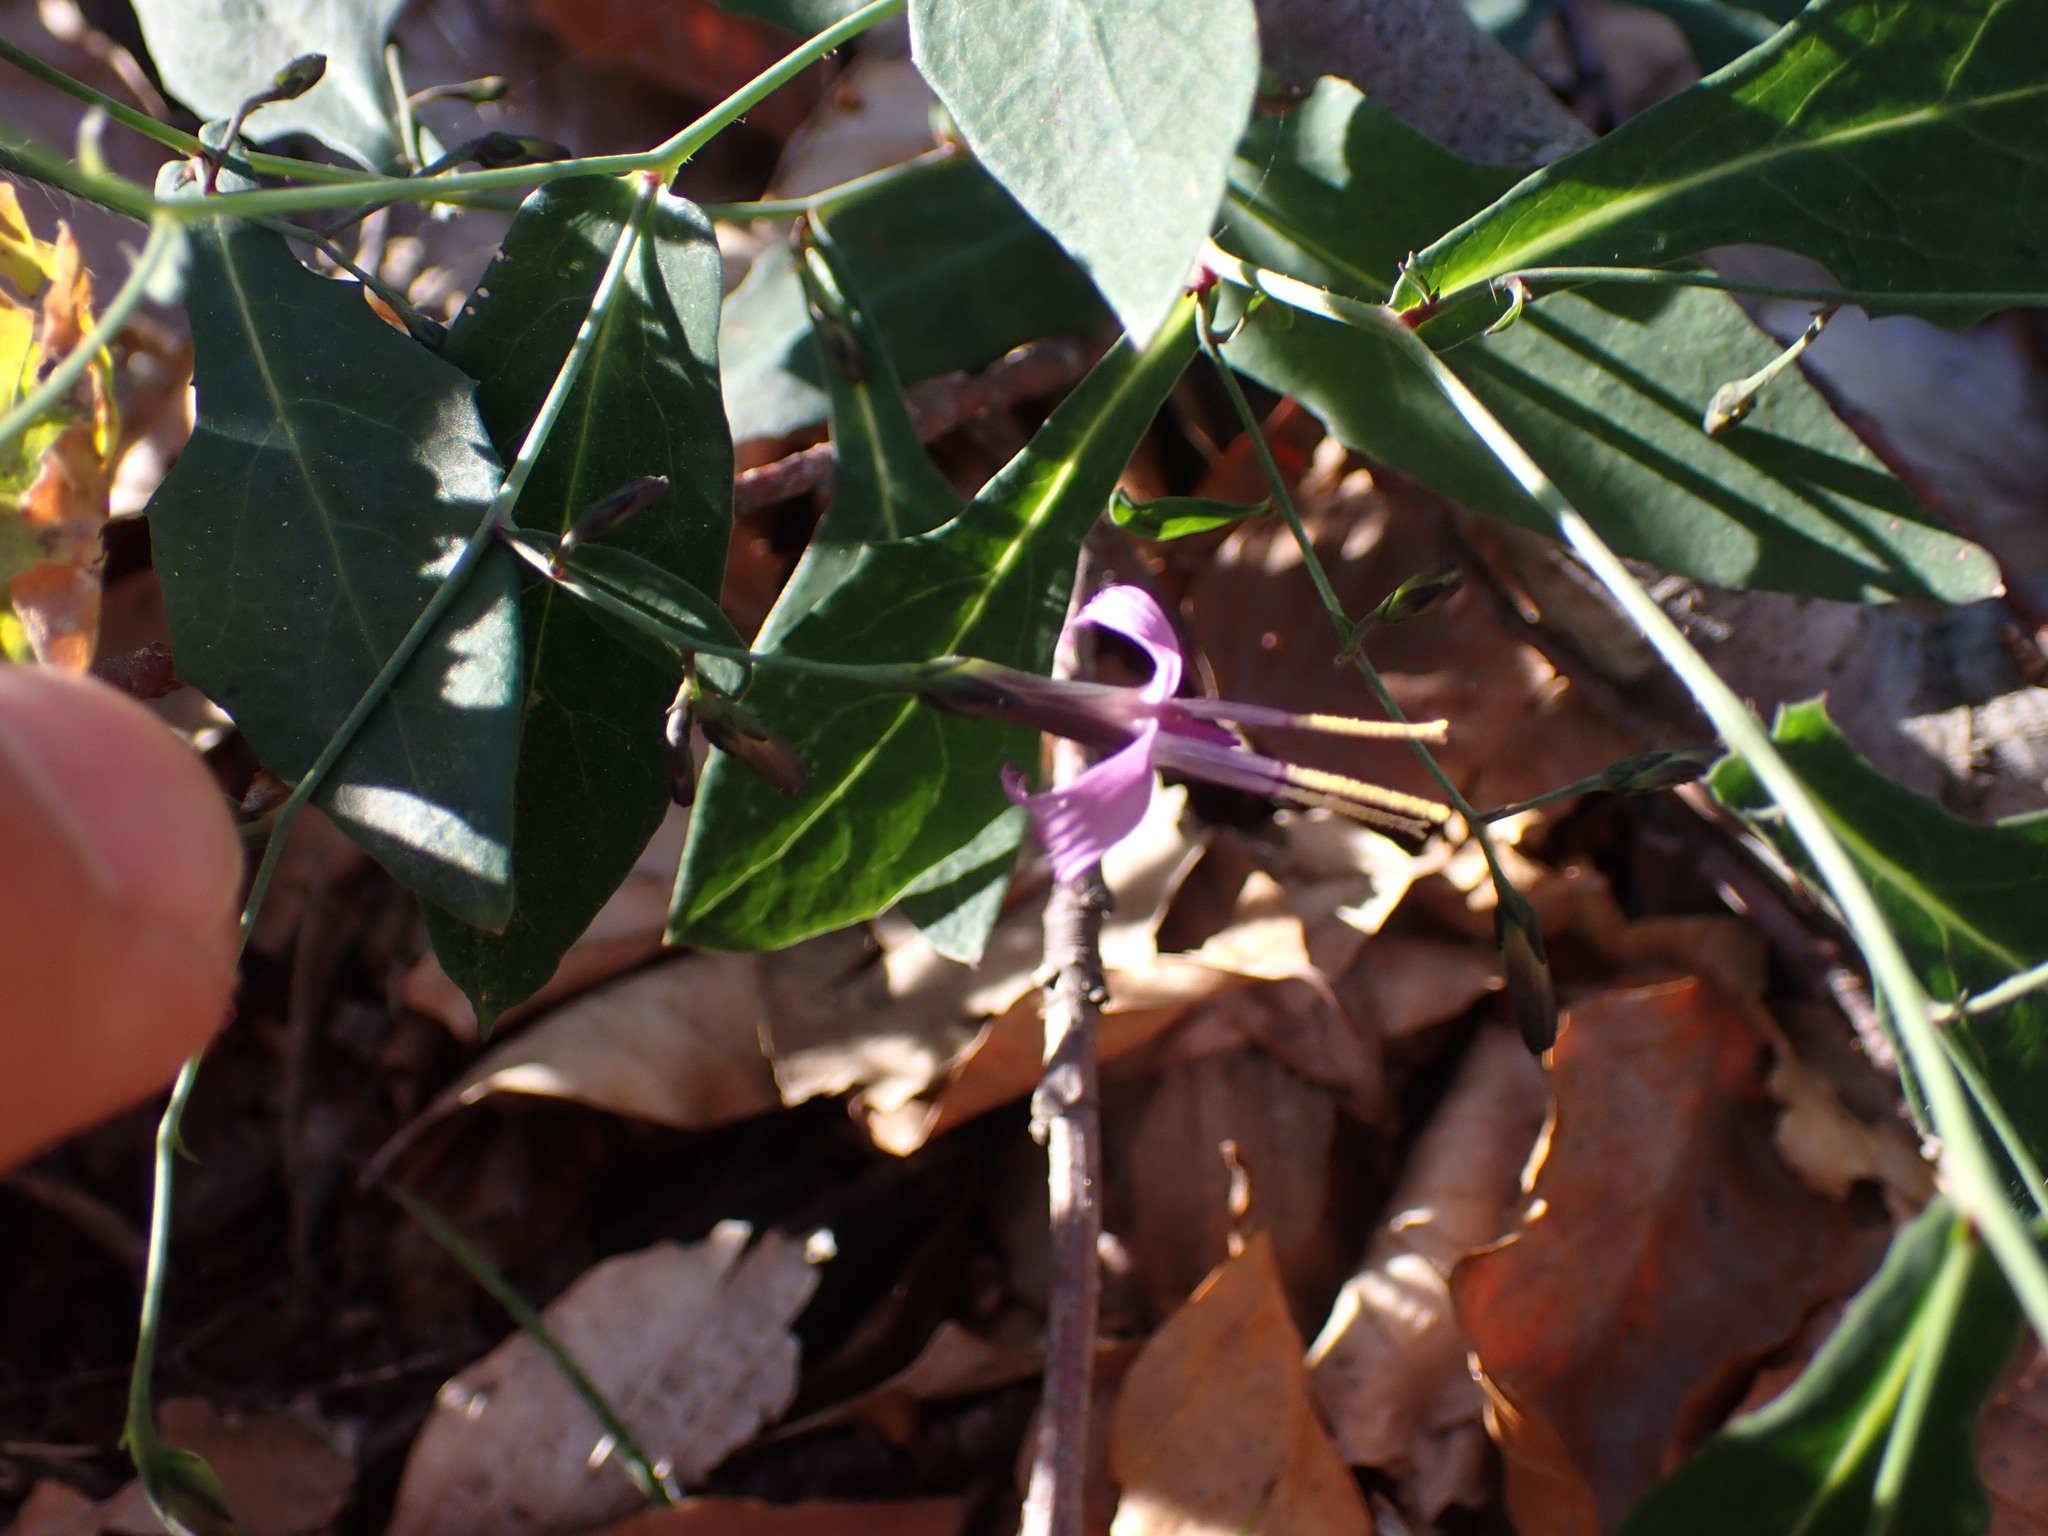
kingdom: Plantae
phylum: Tracheophyta
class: Magnoliopsida
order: Asterales
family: Asteraceae
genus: Prenanthes
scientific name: Prenanthes purpurea
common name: Purple lettuce
